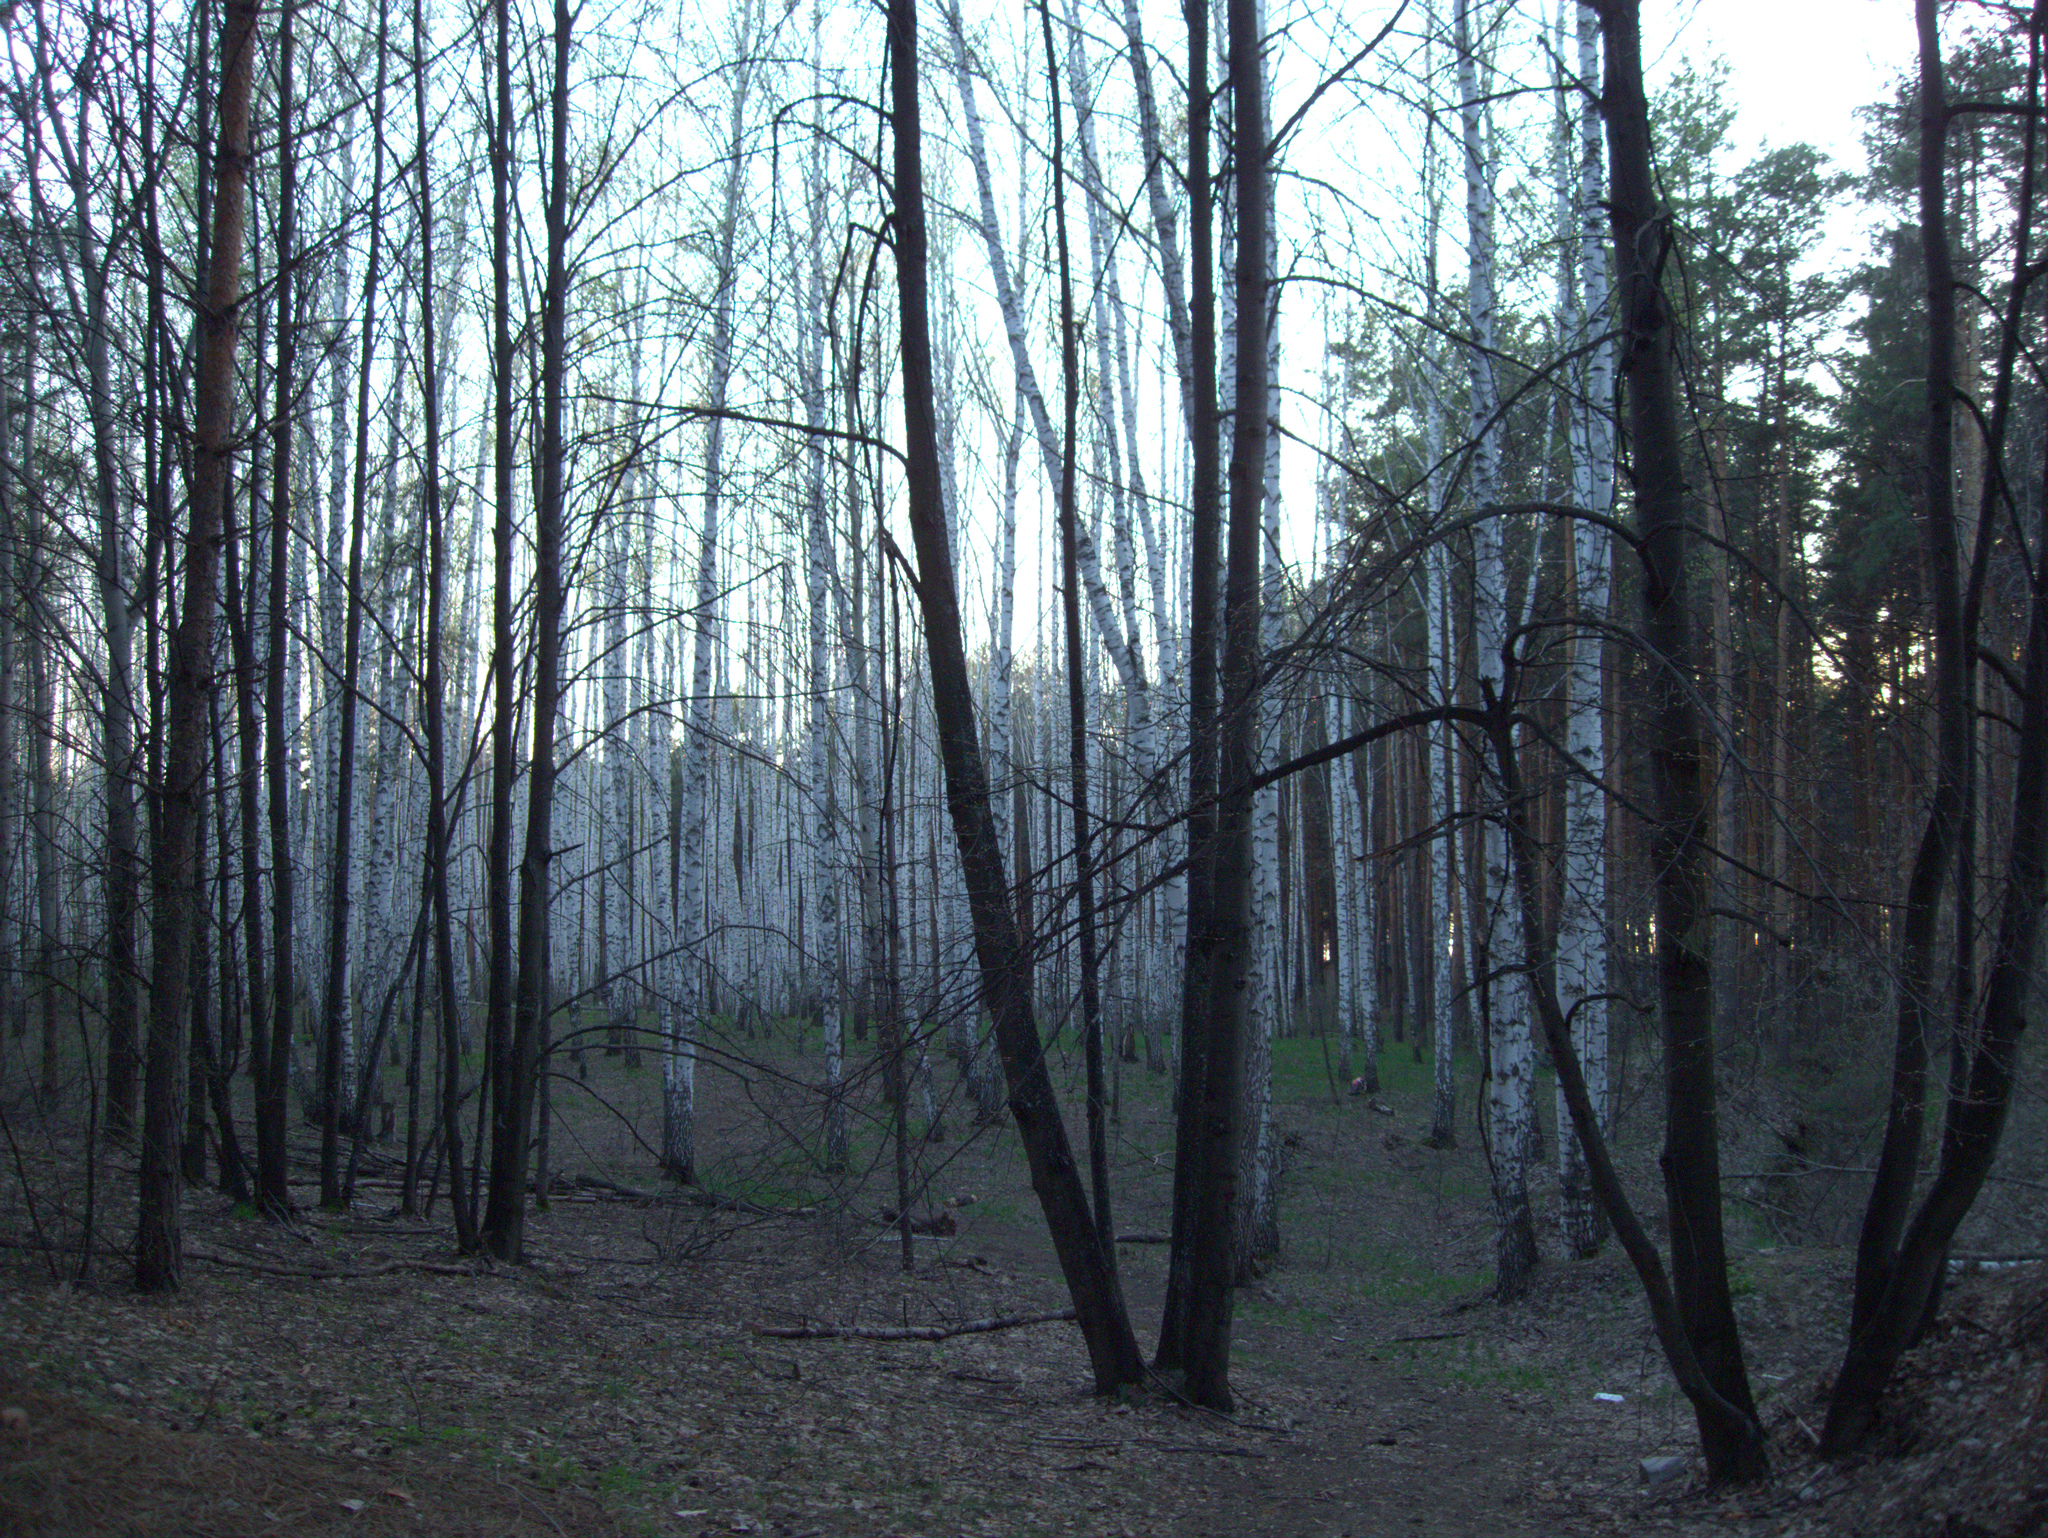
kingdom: Plantae
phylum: Tracheophyta
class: Magnoliopsida
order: Fagales
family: Betulaceae
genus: Betula
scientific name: Betula pendula
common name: Silver birch
